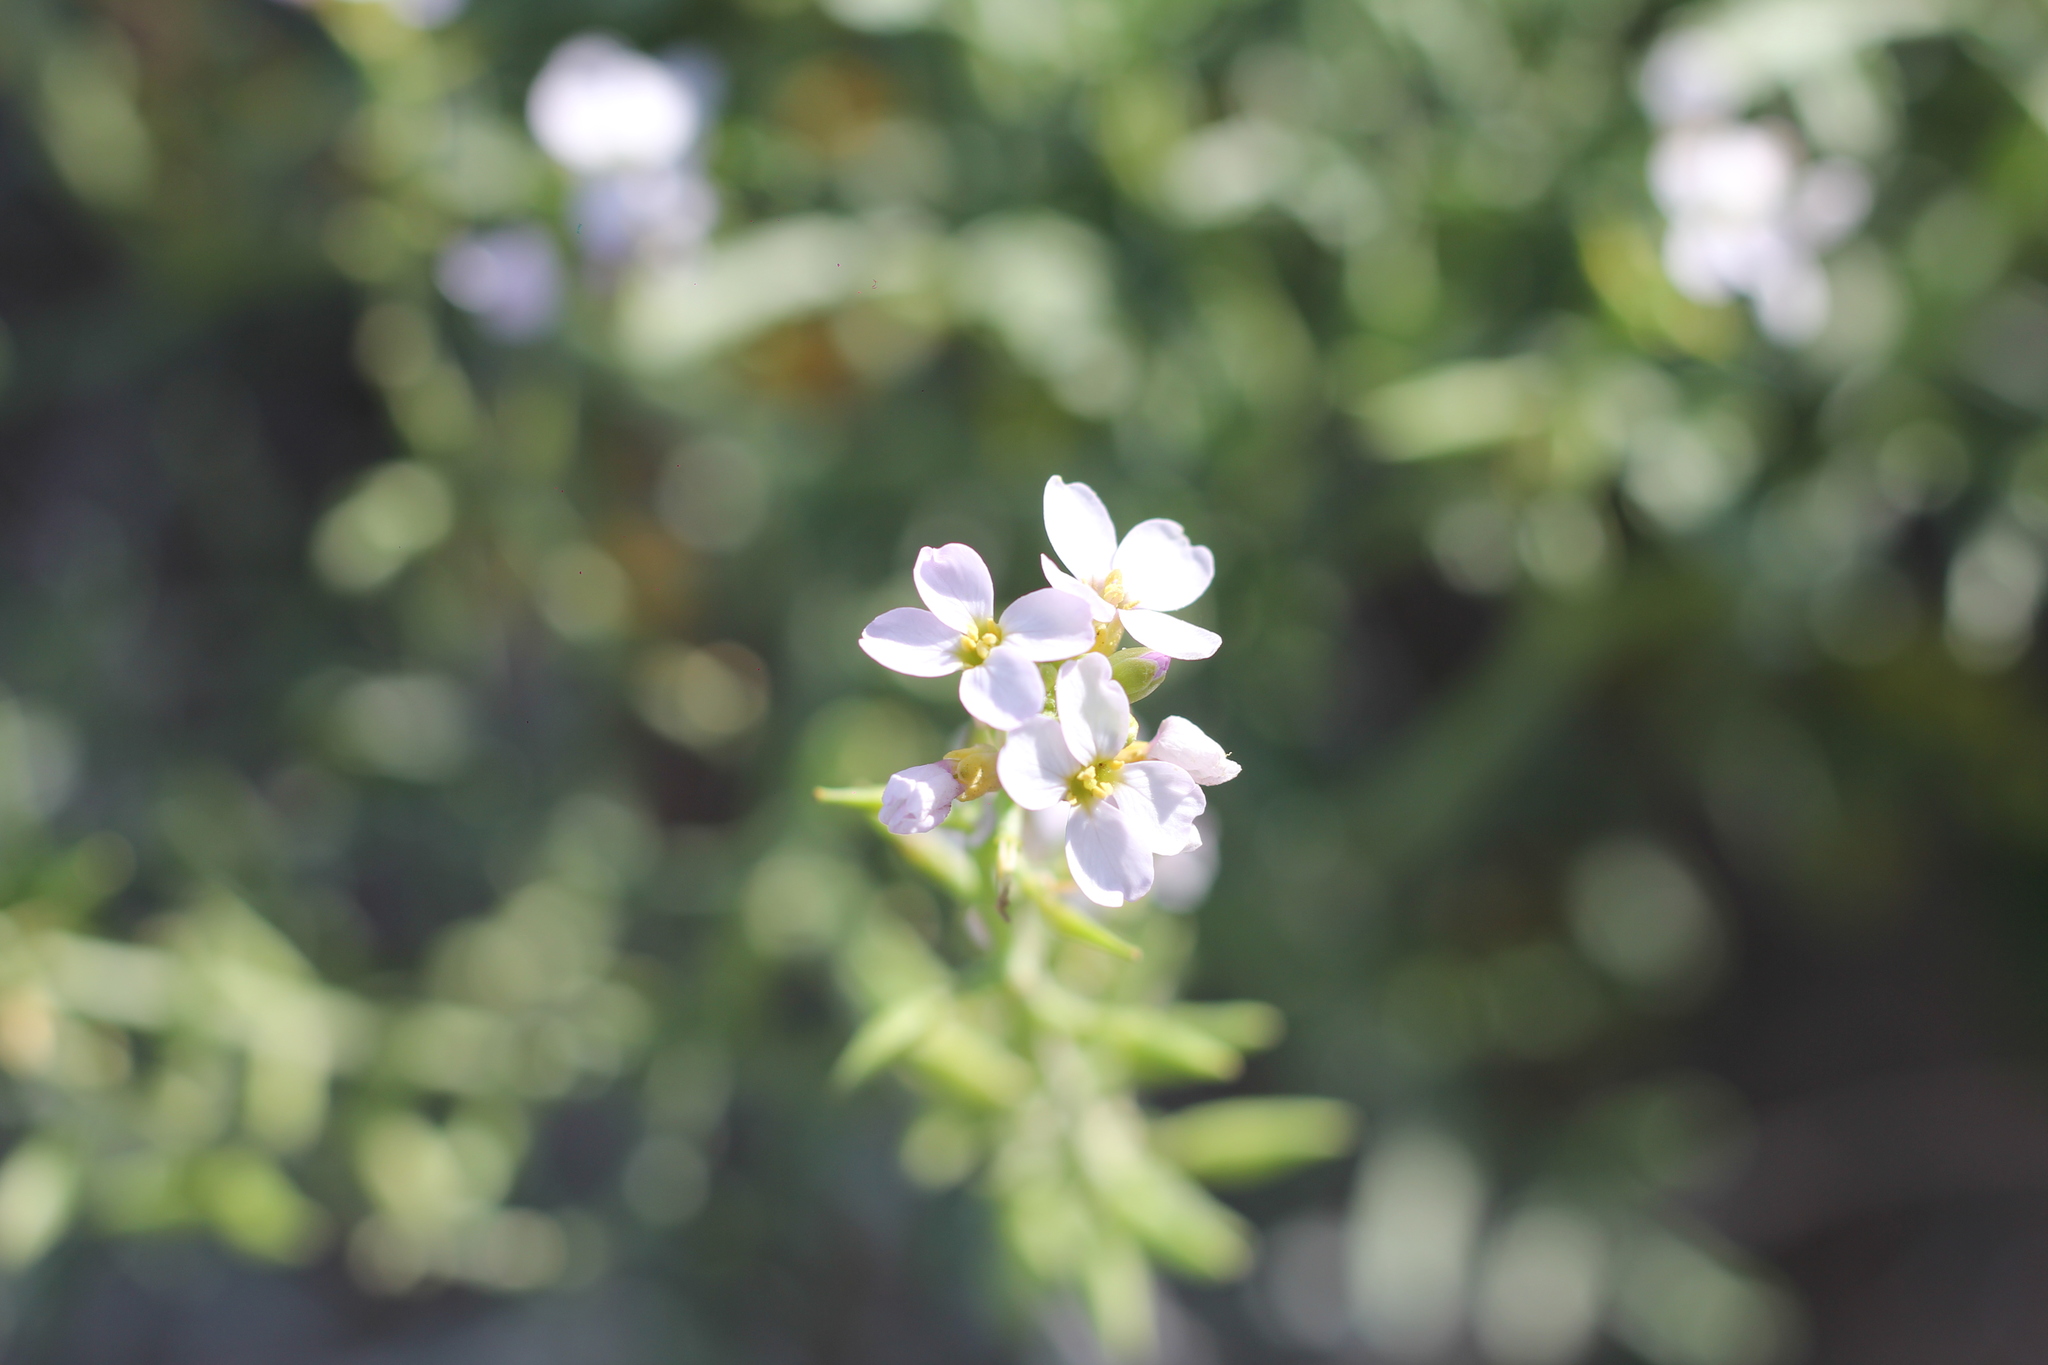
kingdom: Plantae
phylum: Tracheophyta
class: Magnoliopsida
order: Brassicales
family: Brassicaceae
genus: Cakile
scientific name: Cakile maritima
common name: Sea rocket
